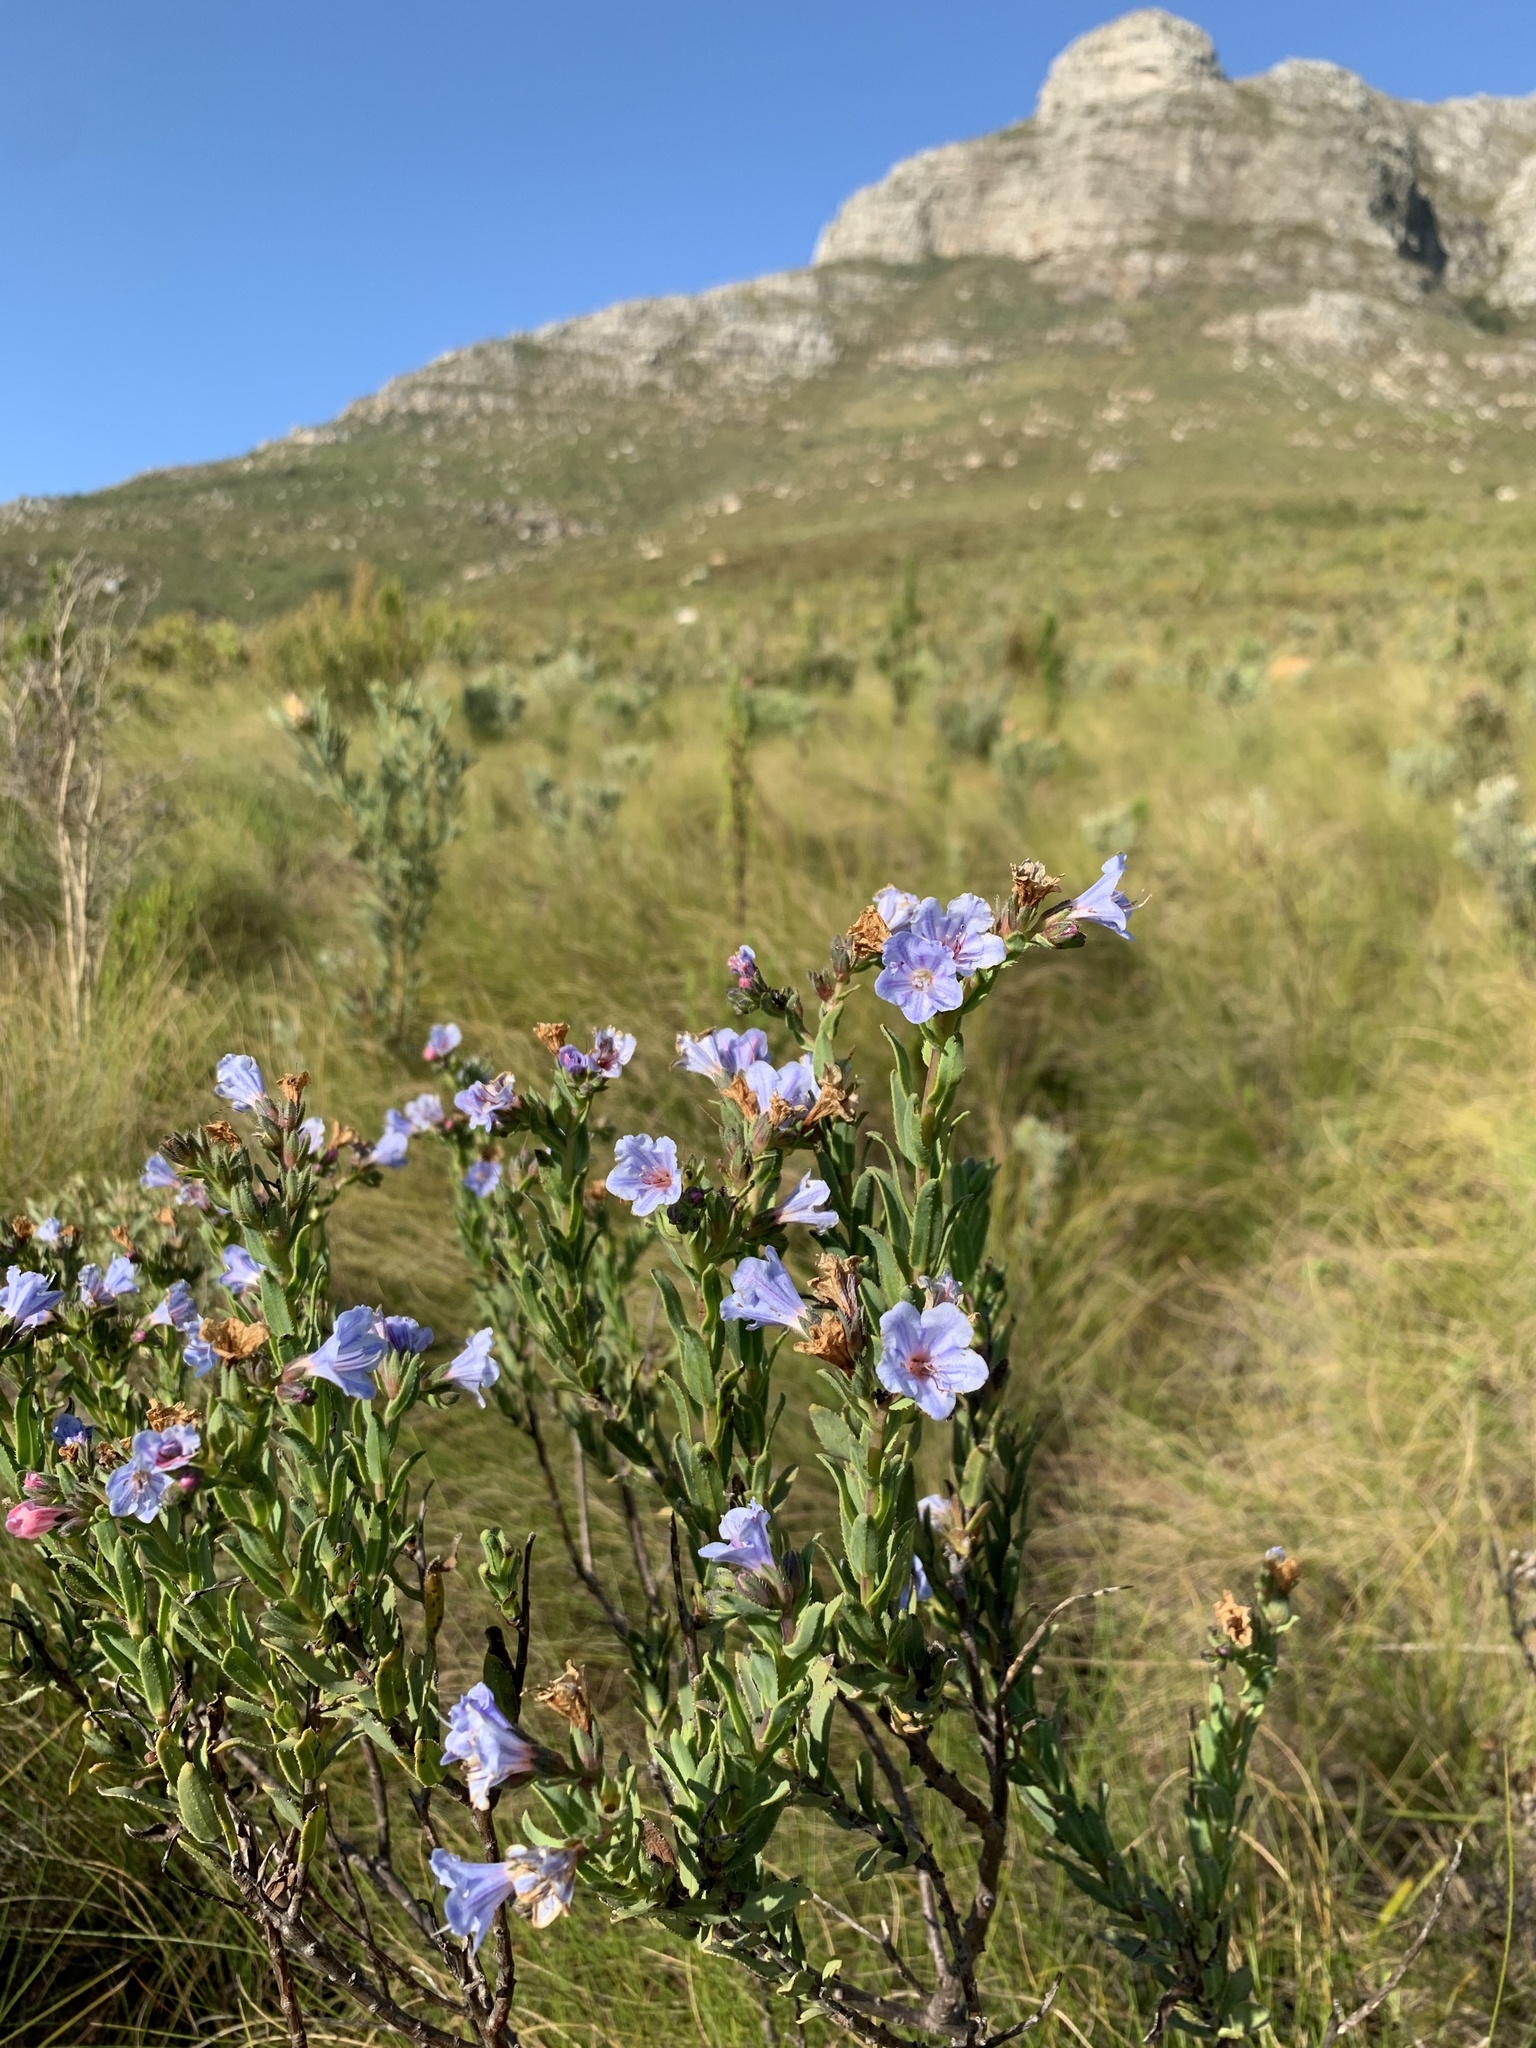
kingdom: Plantae
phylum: Tracheophyta
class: Magnoliopsida
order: Boraginales
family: Boraginaceae
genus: Lobostemon
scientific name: Lobostemon glaucophyllus
